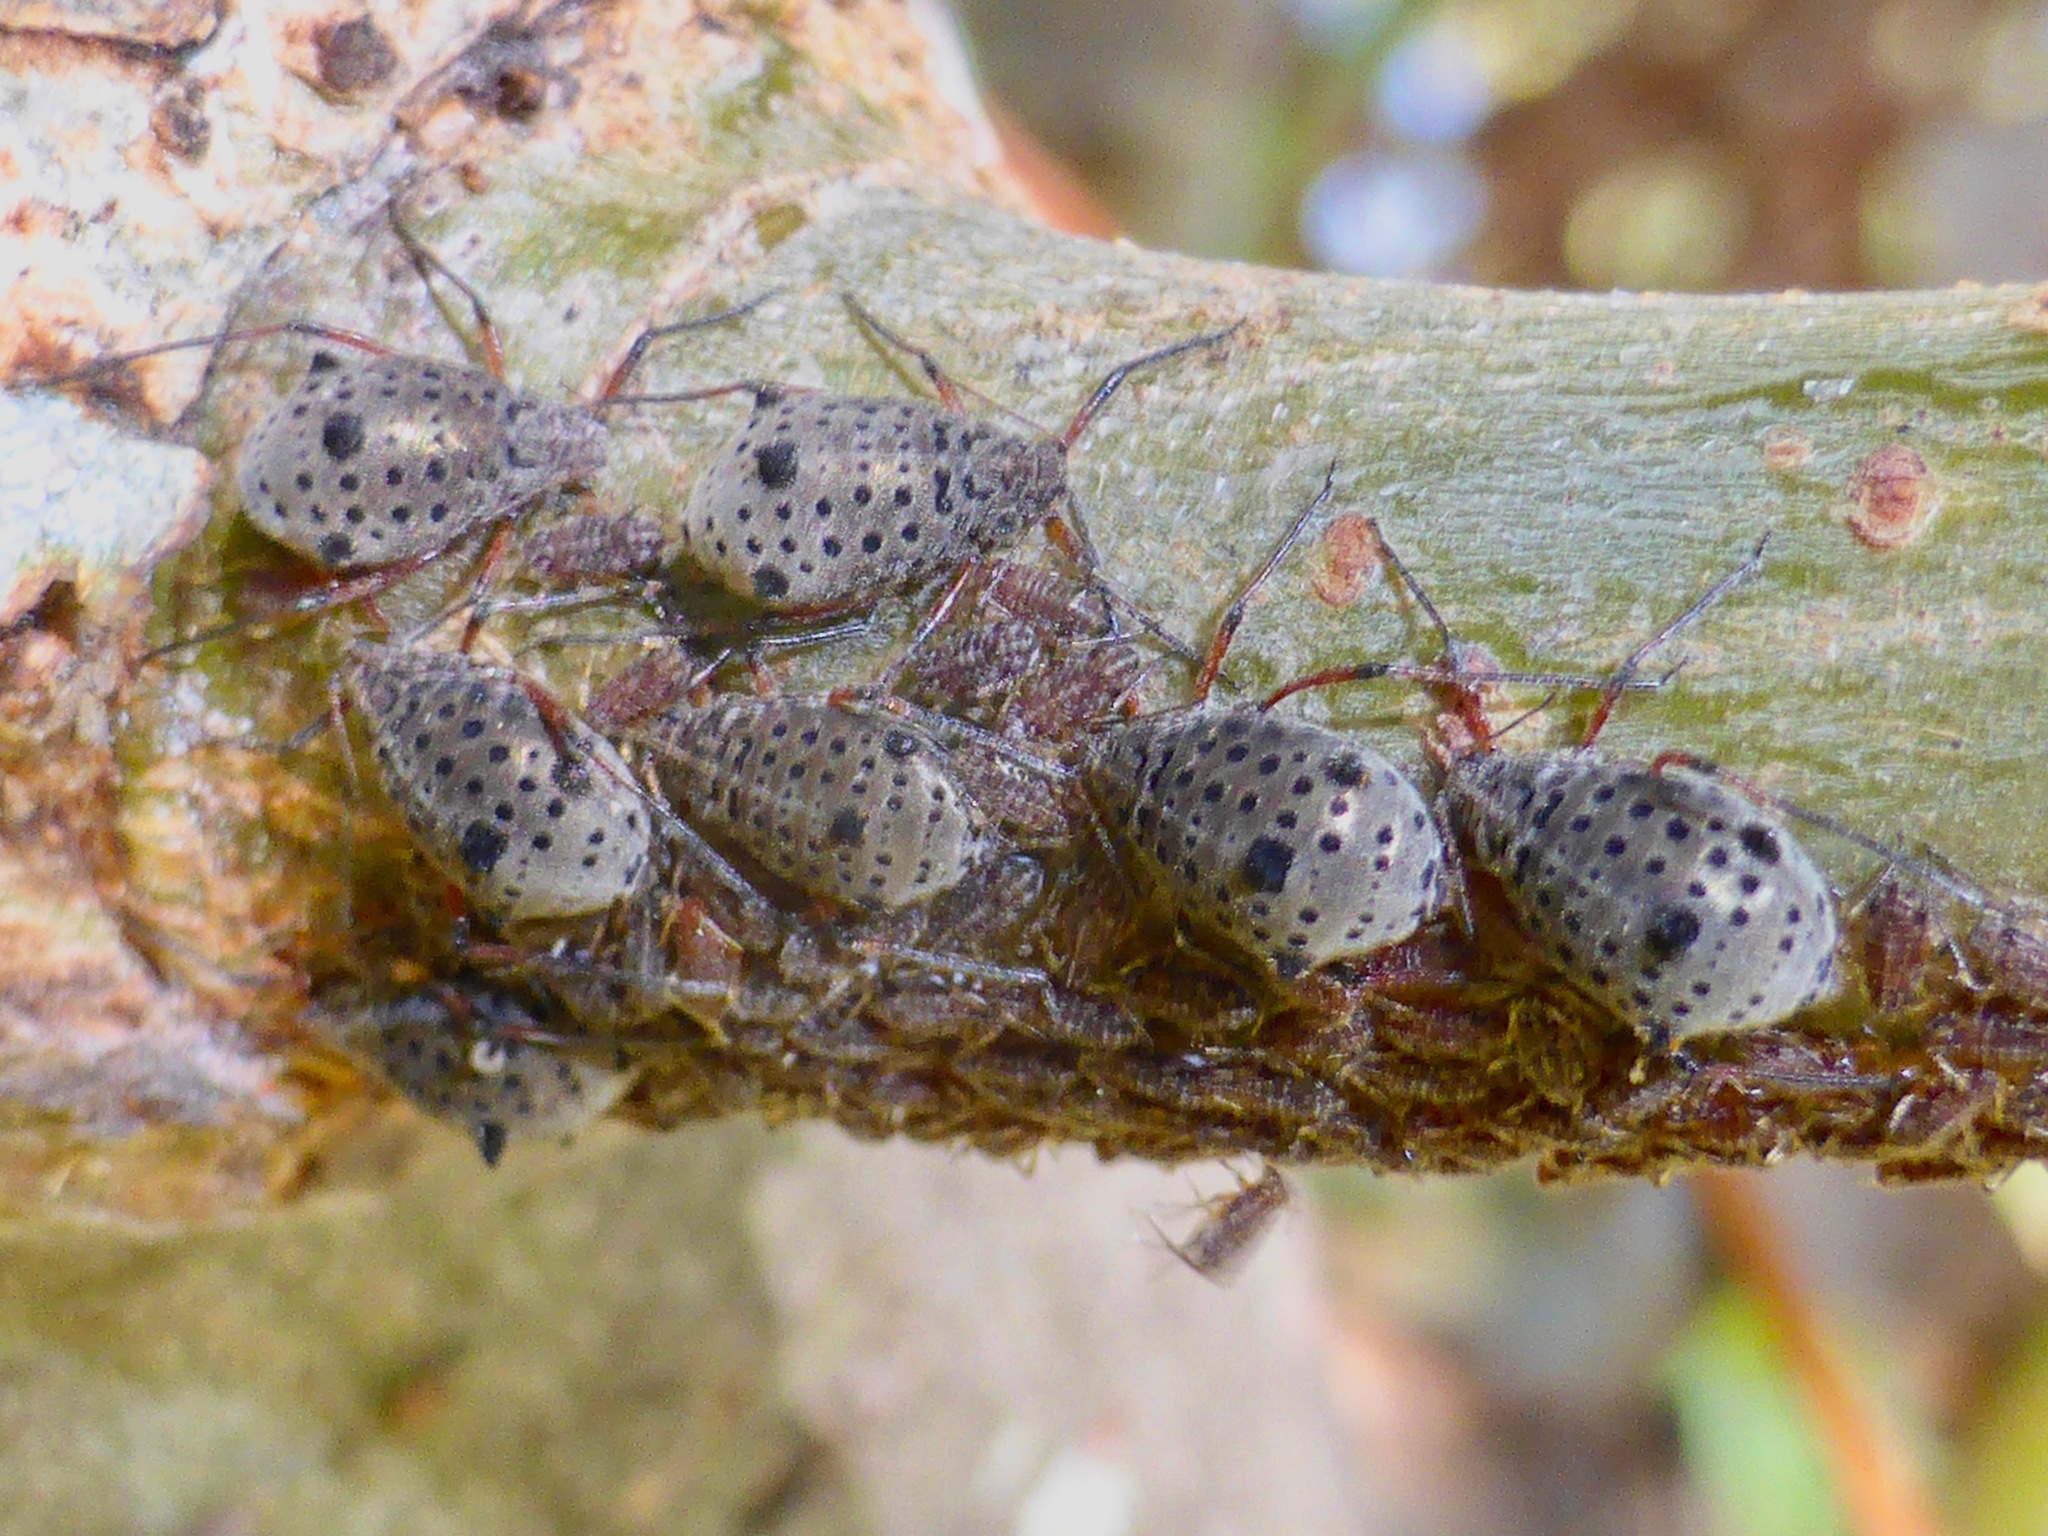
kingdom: Animalia
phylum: Arthropoda
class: Insecta
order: Hemiptera
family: Aphididae
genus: Tuberolachnus
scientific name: Tuberolachnus salignus
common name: Giant willow aphid
